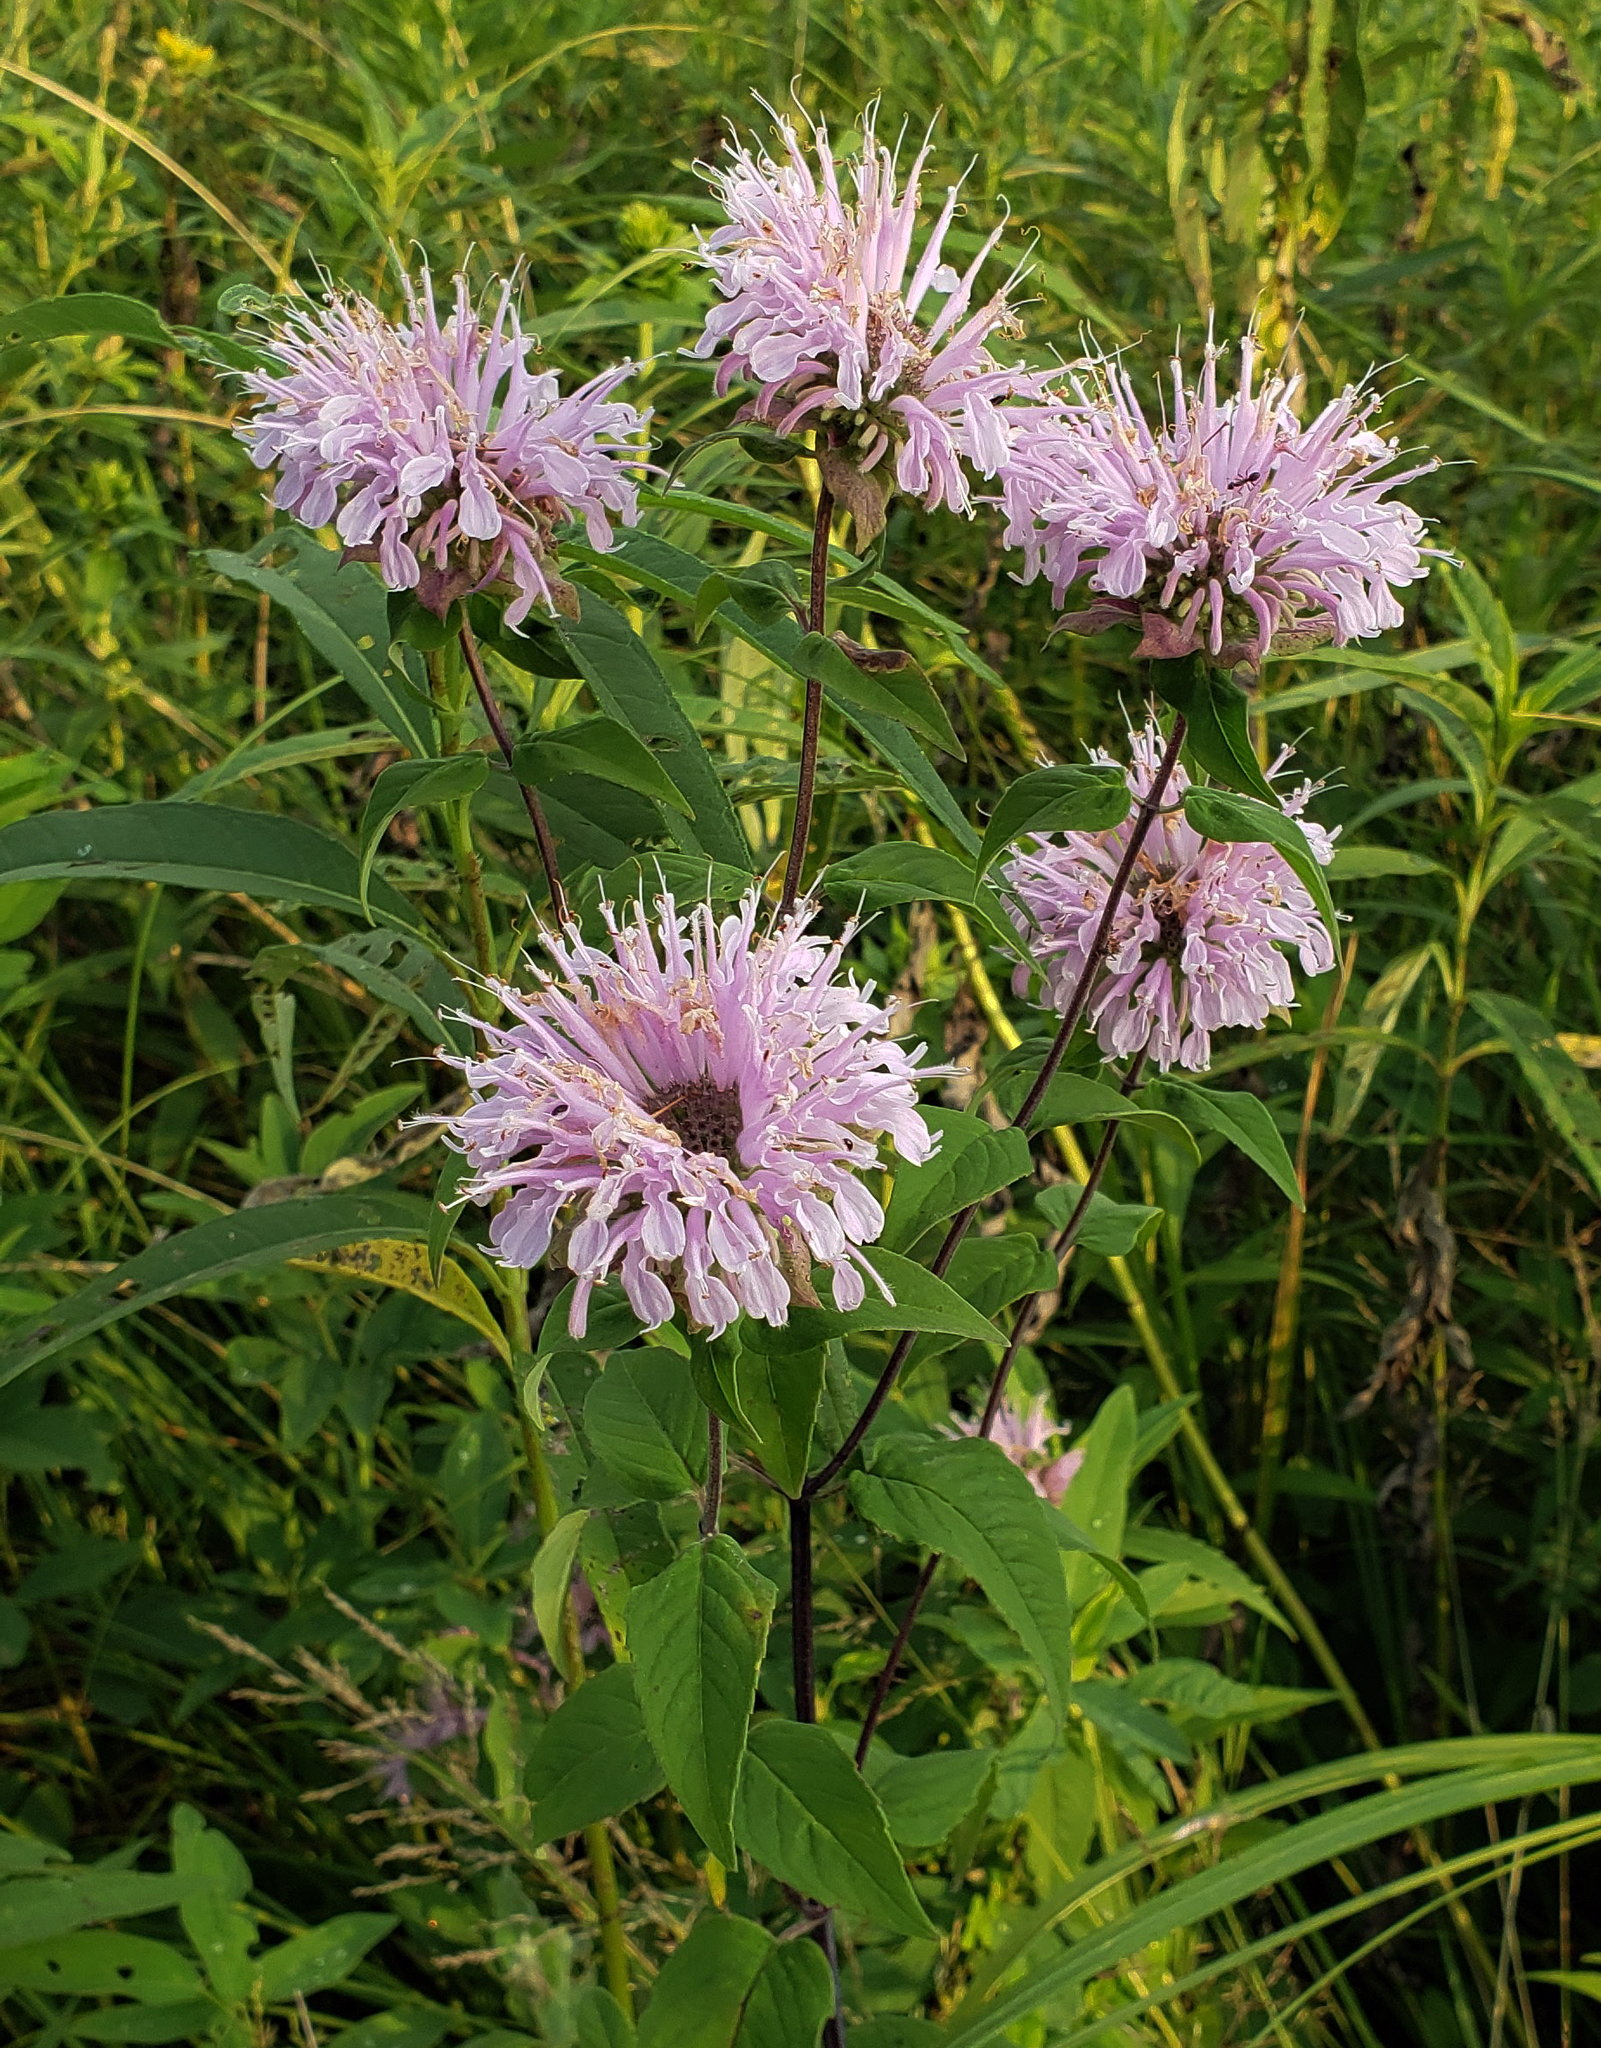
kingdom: Plantae
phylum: Tracheophyta
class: Magnoliopsida
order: Lamiales
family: Lamiaceae
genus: Monarda
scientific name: Monarda fistulosa
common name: Purple beebalm
